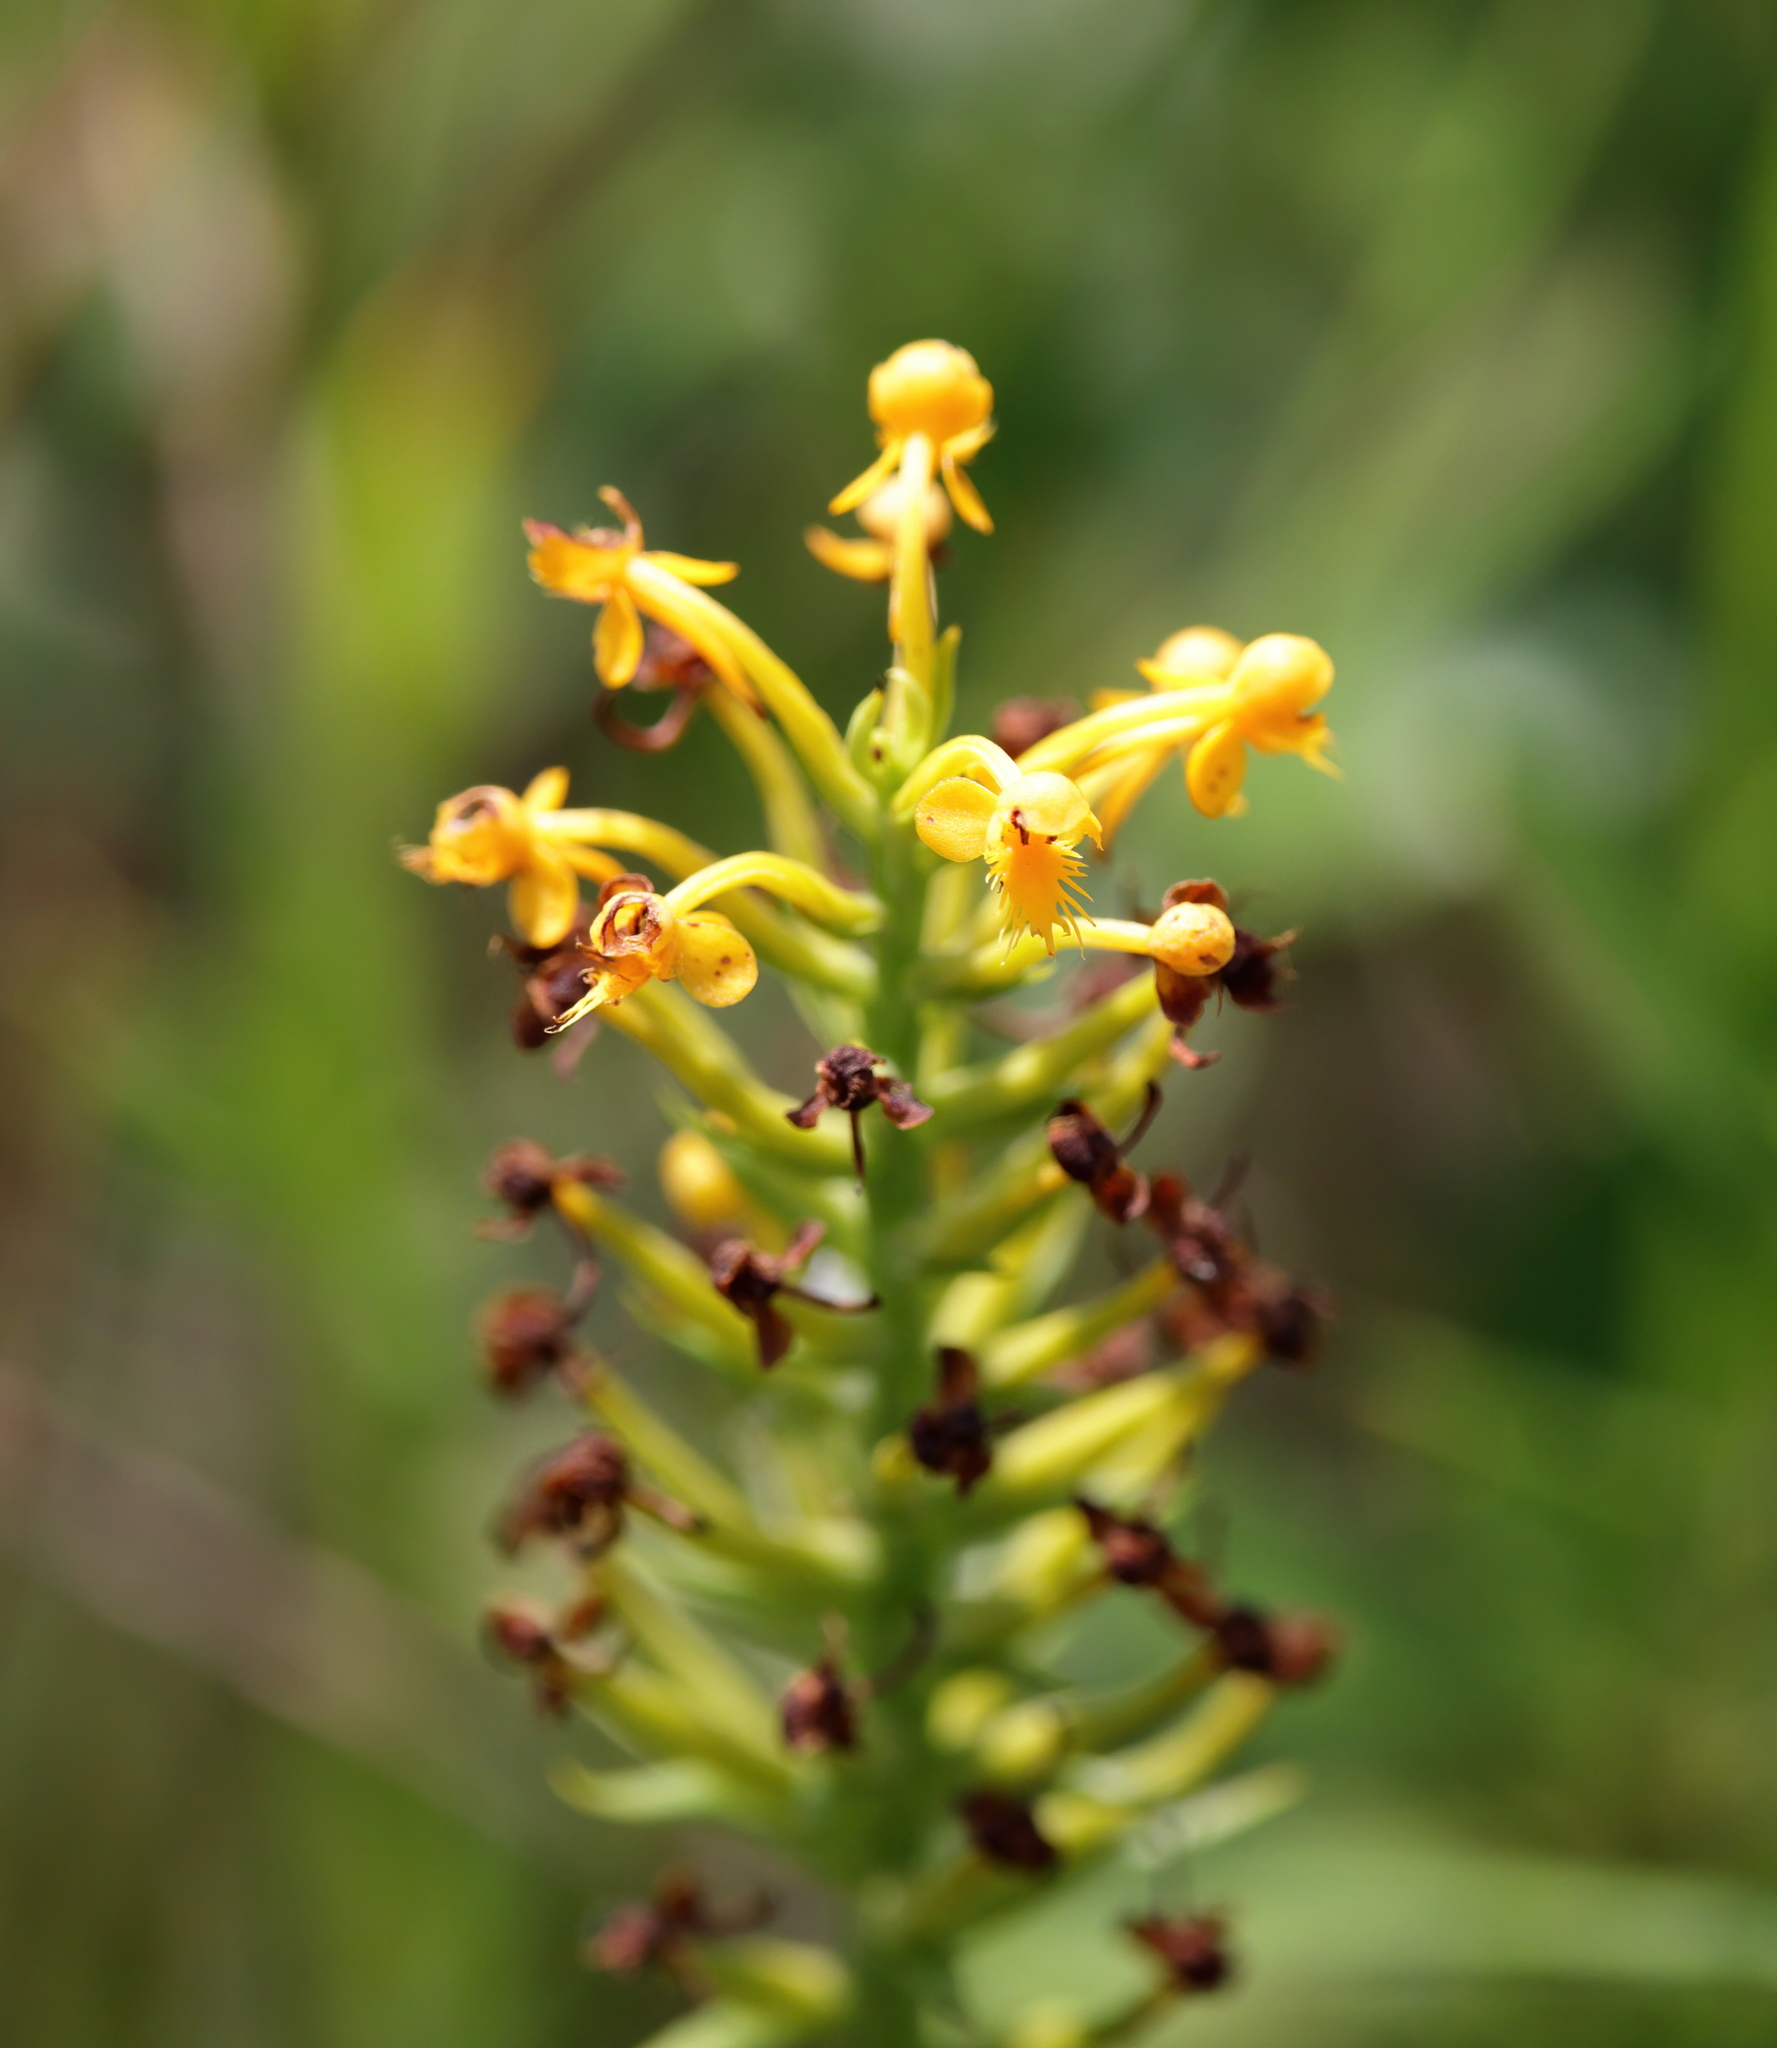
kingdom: Plantae
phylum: Tracheophyta
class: Liliopsida
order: Asparagales
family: Orchidaceae
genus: Platanthera
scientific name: Platanthera cristata
